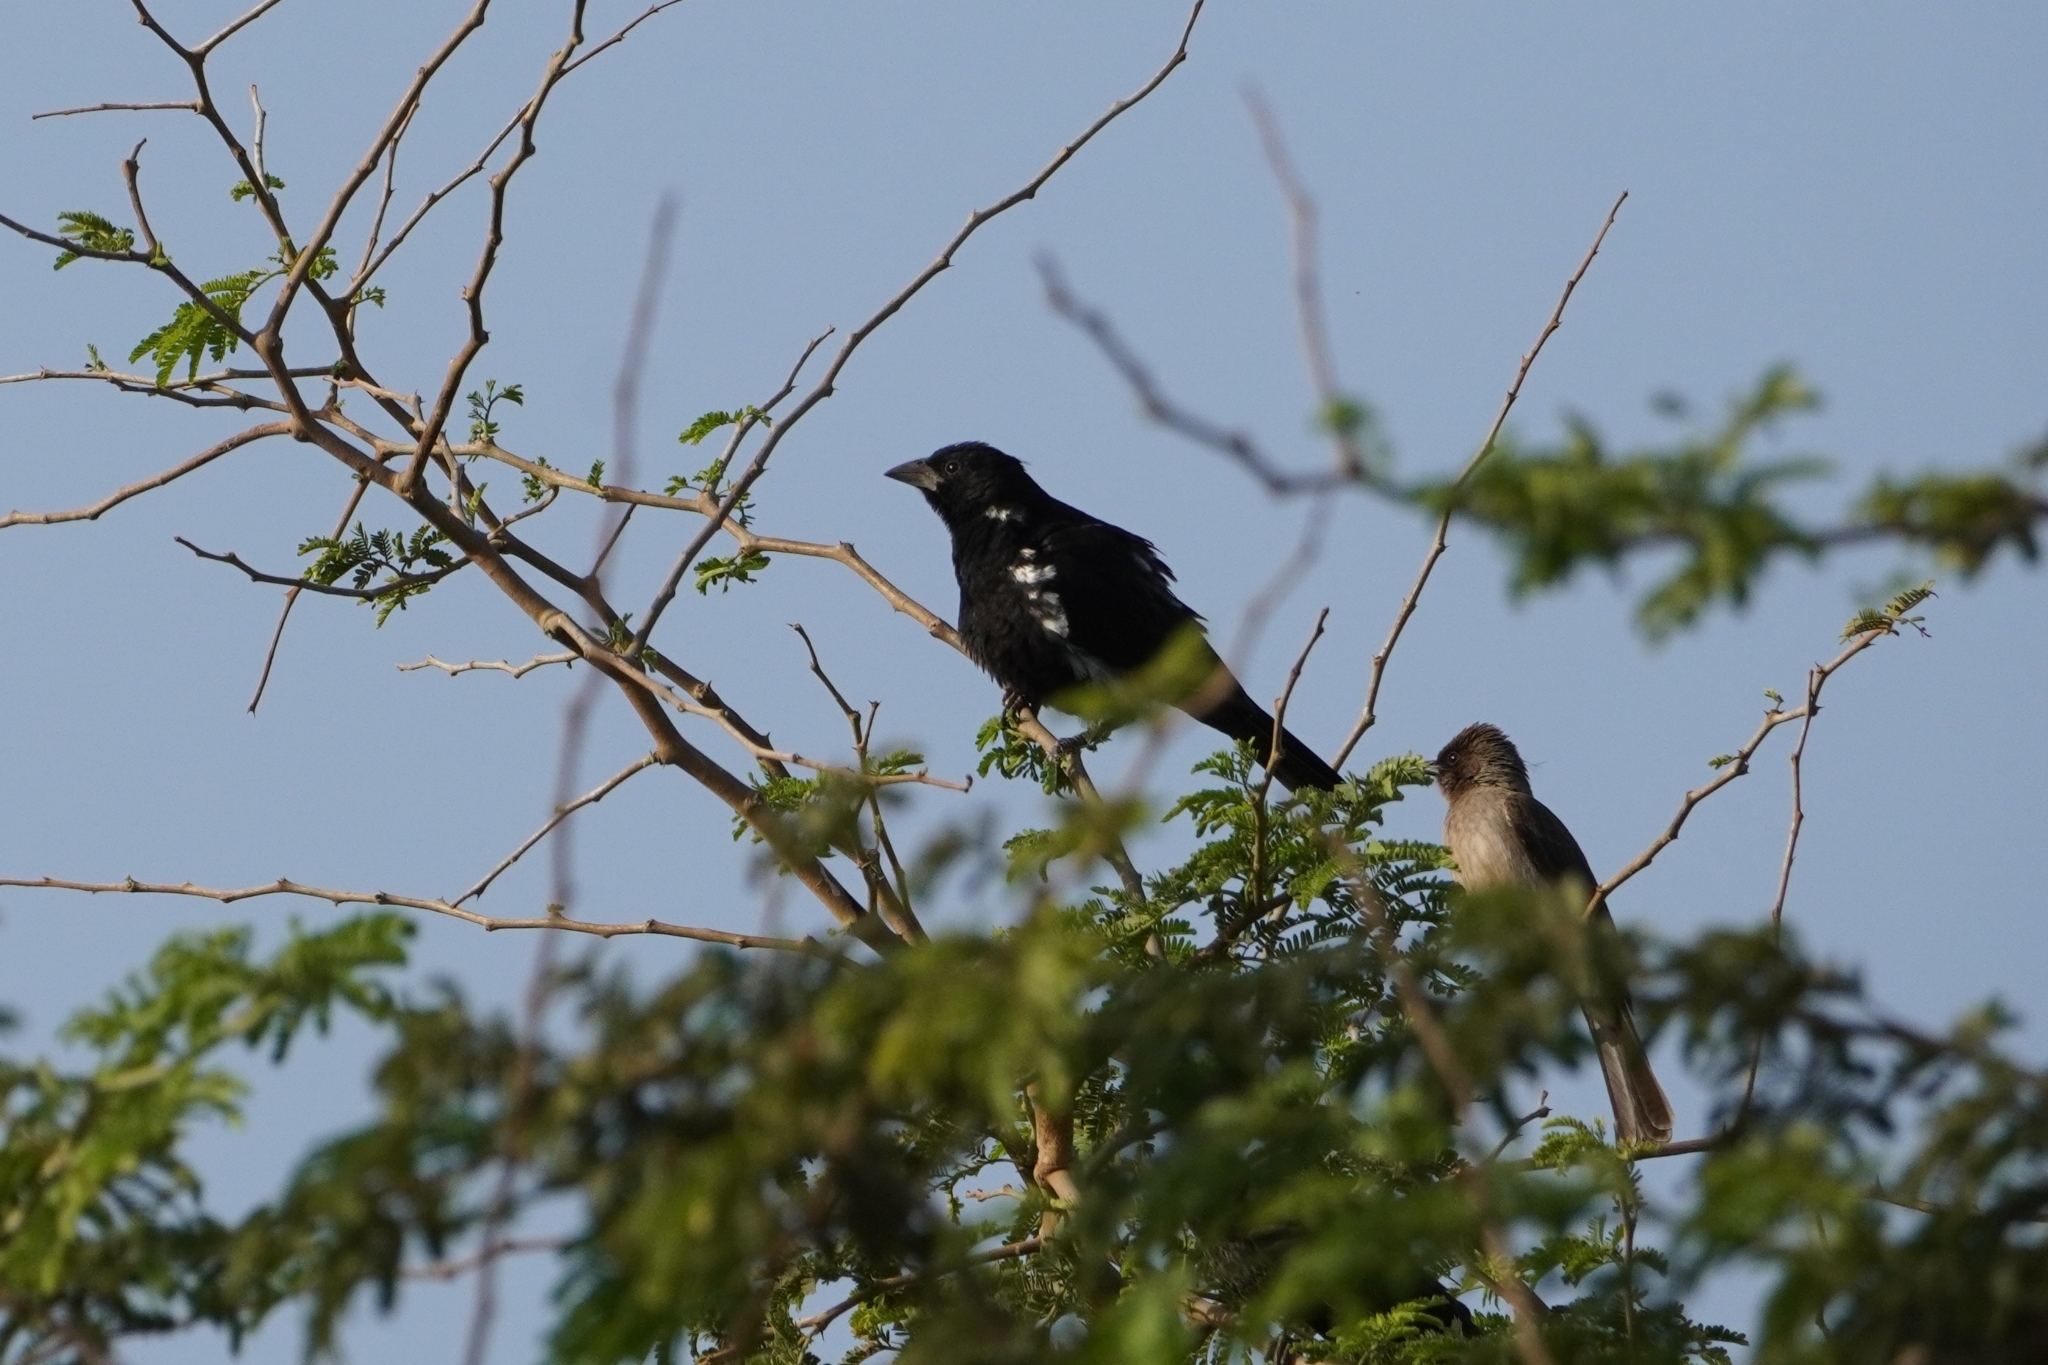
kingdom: Animalia
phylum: Chordata
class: Aves
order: Passeriformes
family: Ploceidae
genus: Bubalornis
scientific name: Bubalornis albirostris
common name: White-billed buffalo weaver
